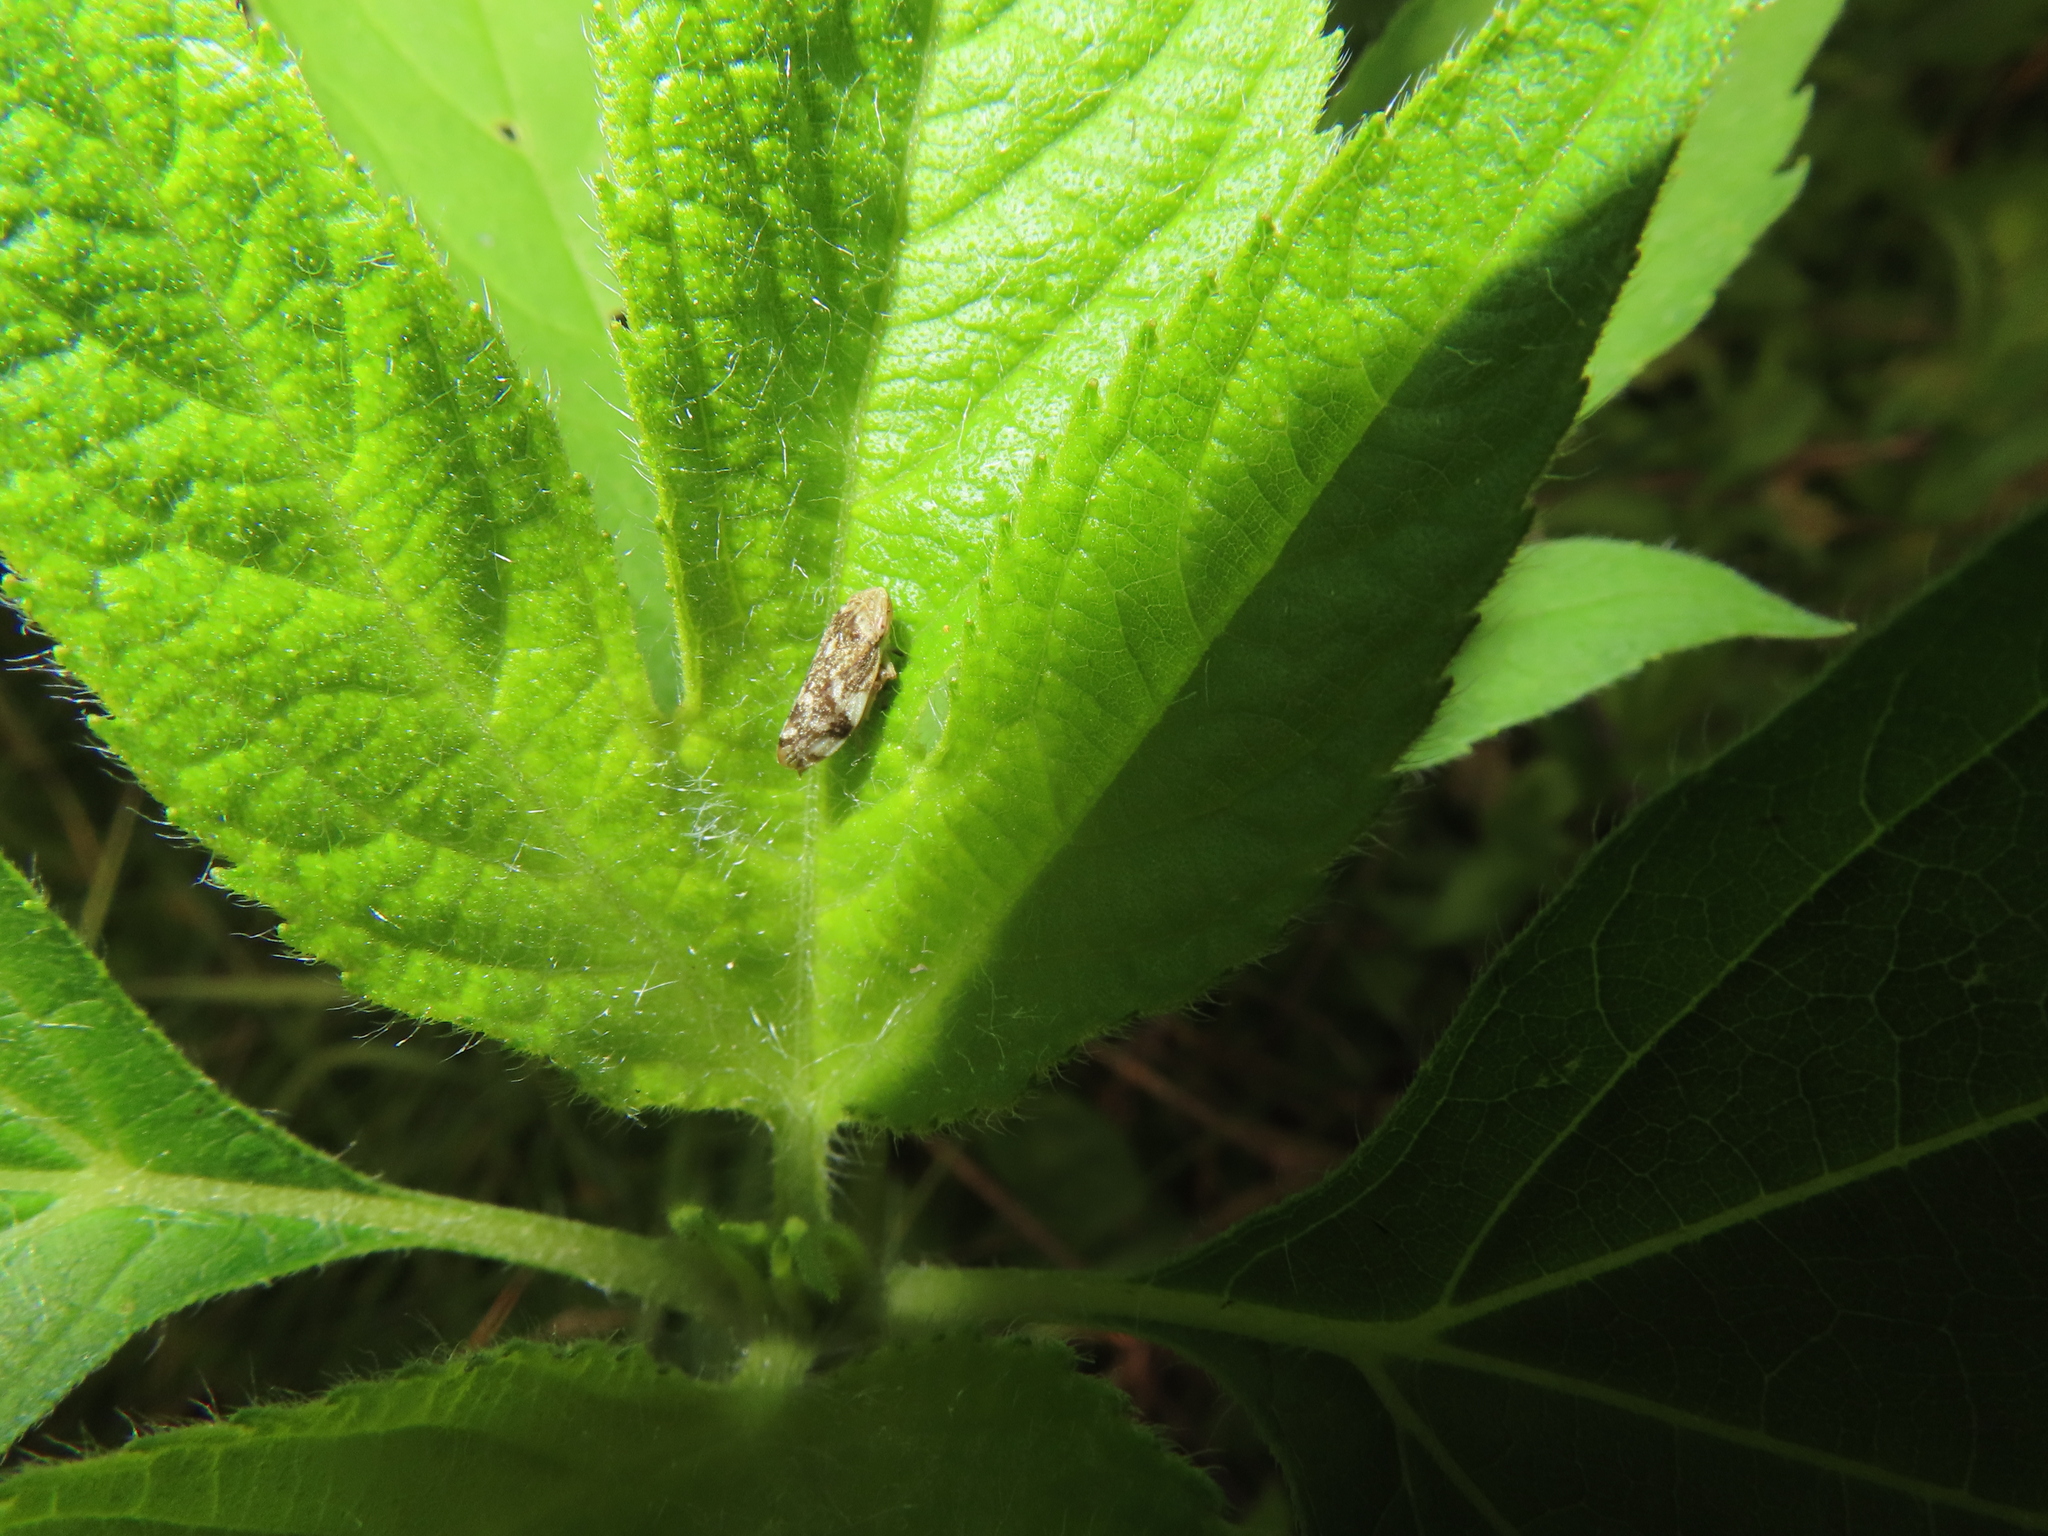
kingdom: Animalia
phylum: Arthropoda
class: Insecta
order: Hemiptera
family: Aphrophoridae
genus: Philaenus
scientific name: Philaenus spumarius
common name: Meadow spittlebug
